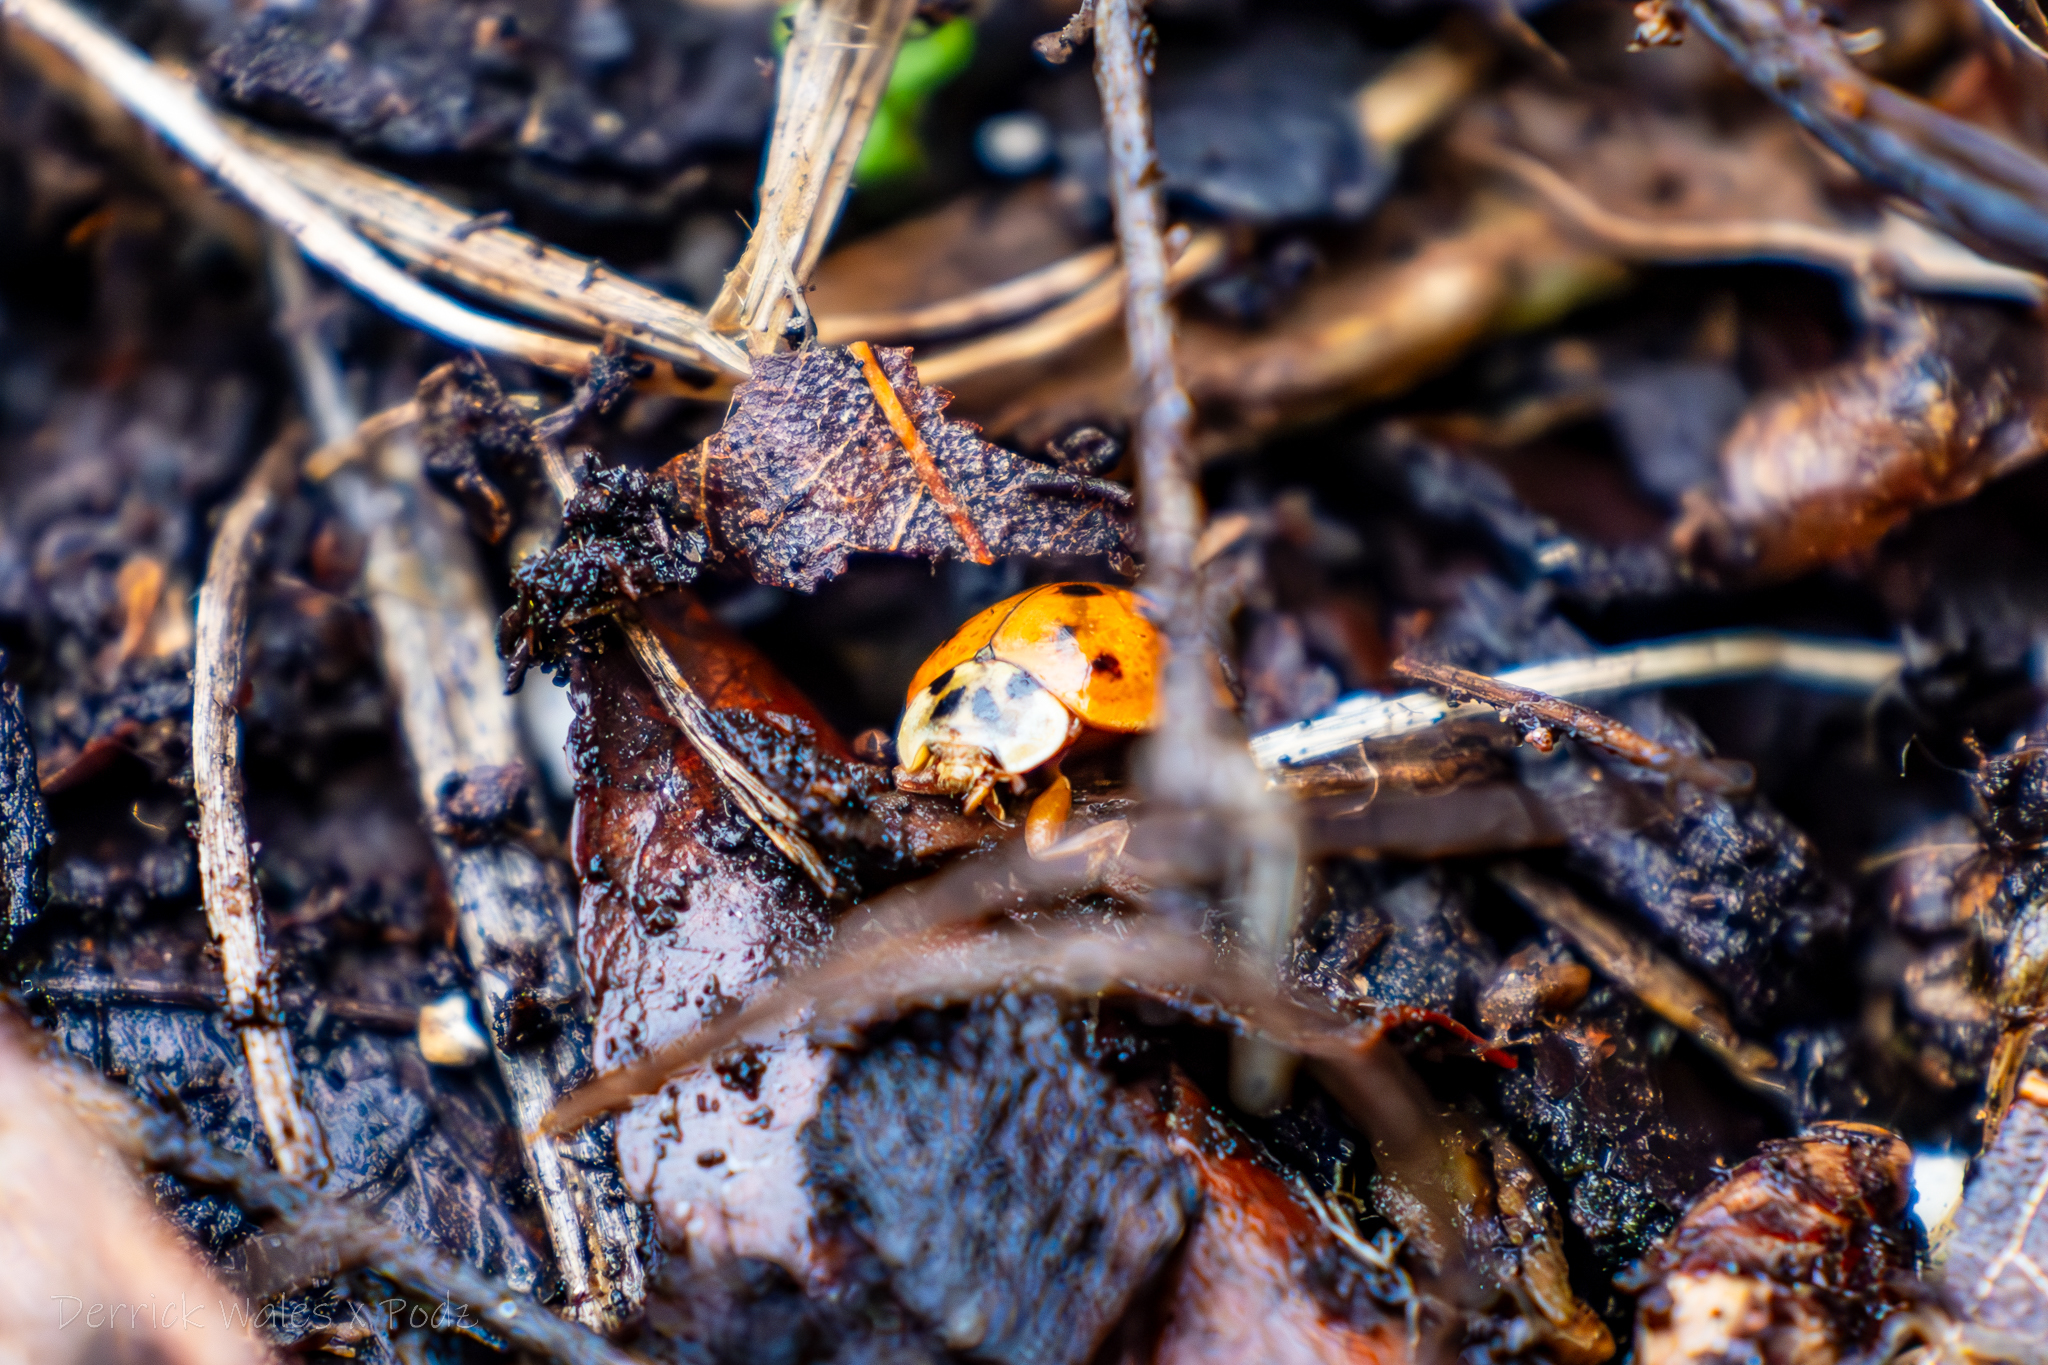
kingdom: Animalia
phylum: Arthropoda
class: Insecta
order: Coleoptera
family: Coccinellidae
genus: Harmonia
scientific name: Harmonia axyridis
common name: Harlequin ladybird
